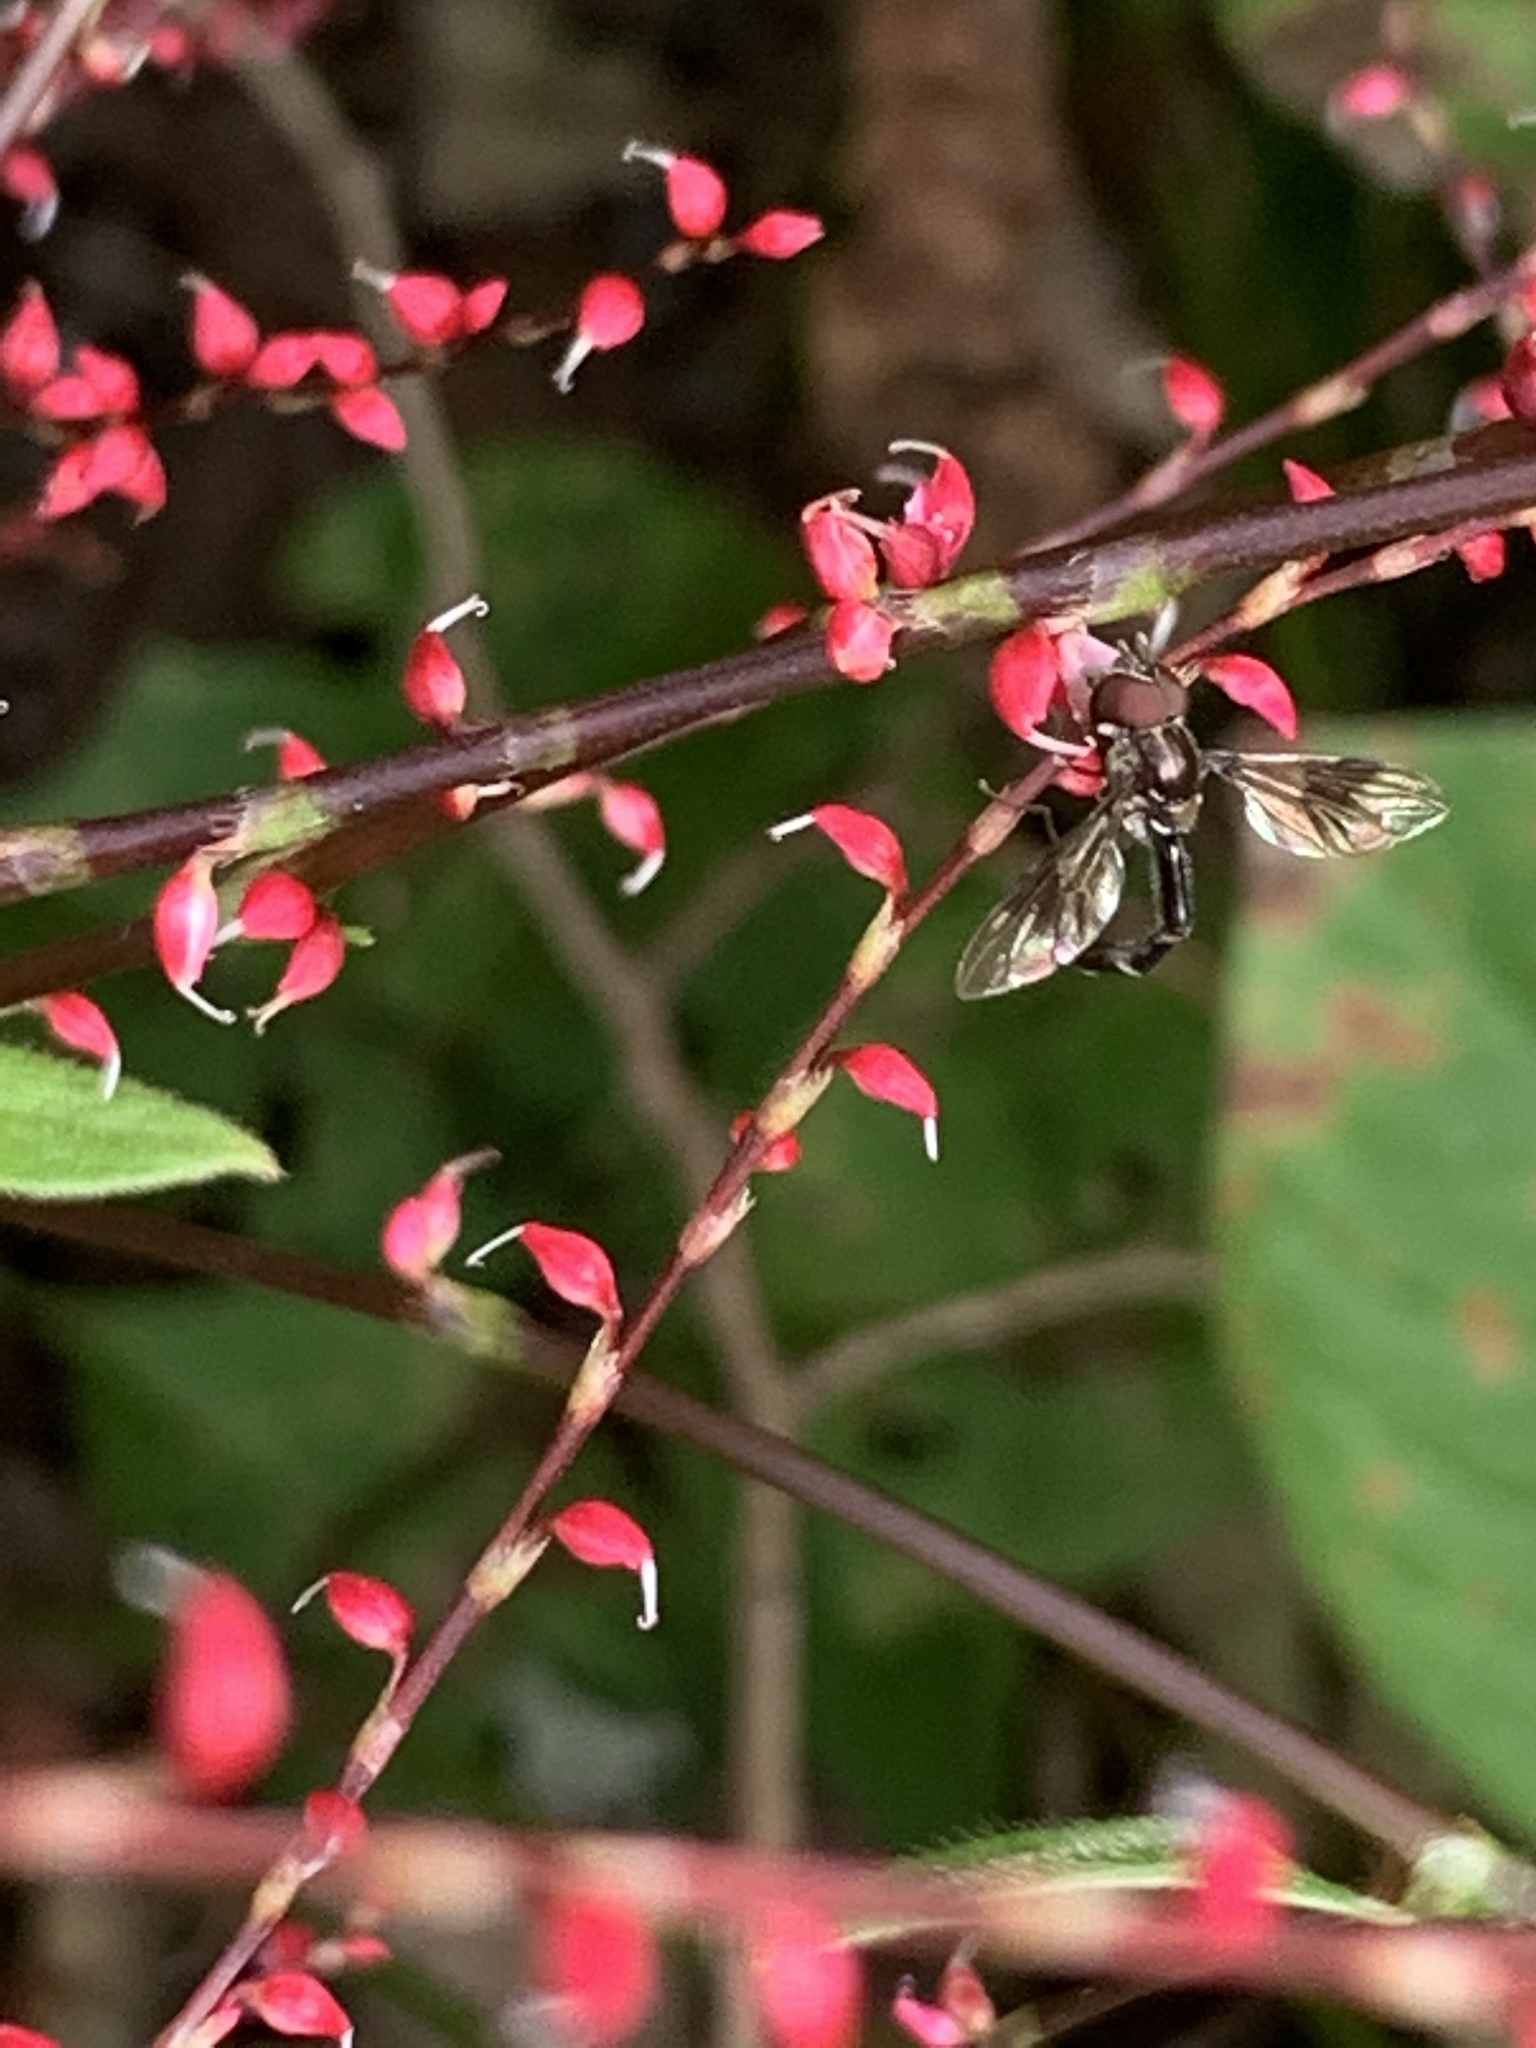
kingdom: Animalia
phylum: Arthropoda
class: Insecta
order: Diptera
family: Syrphidae
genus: Hypocritanus
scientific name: Hypocritanus fascipennis
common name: Eastern band-winged hover fly
